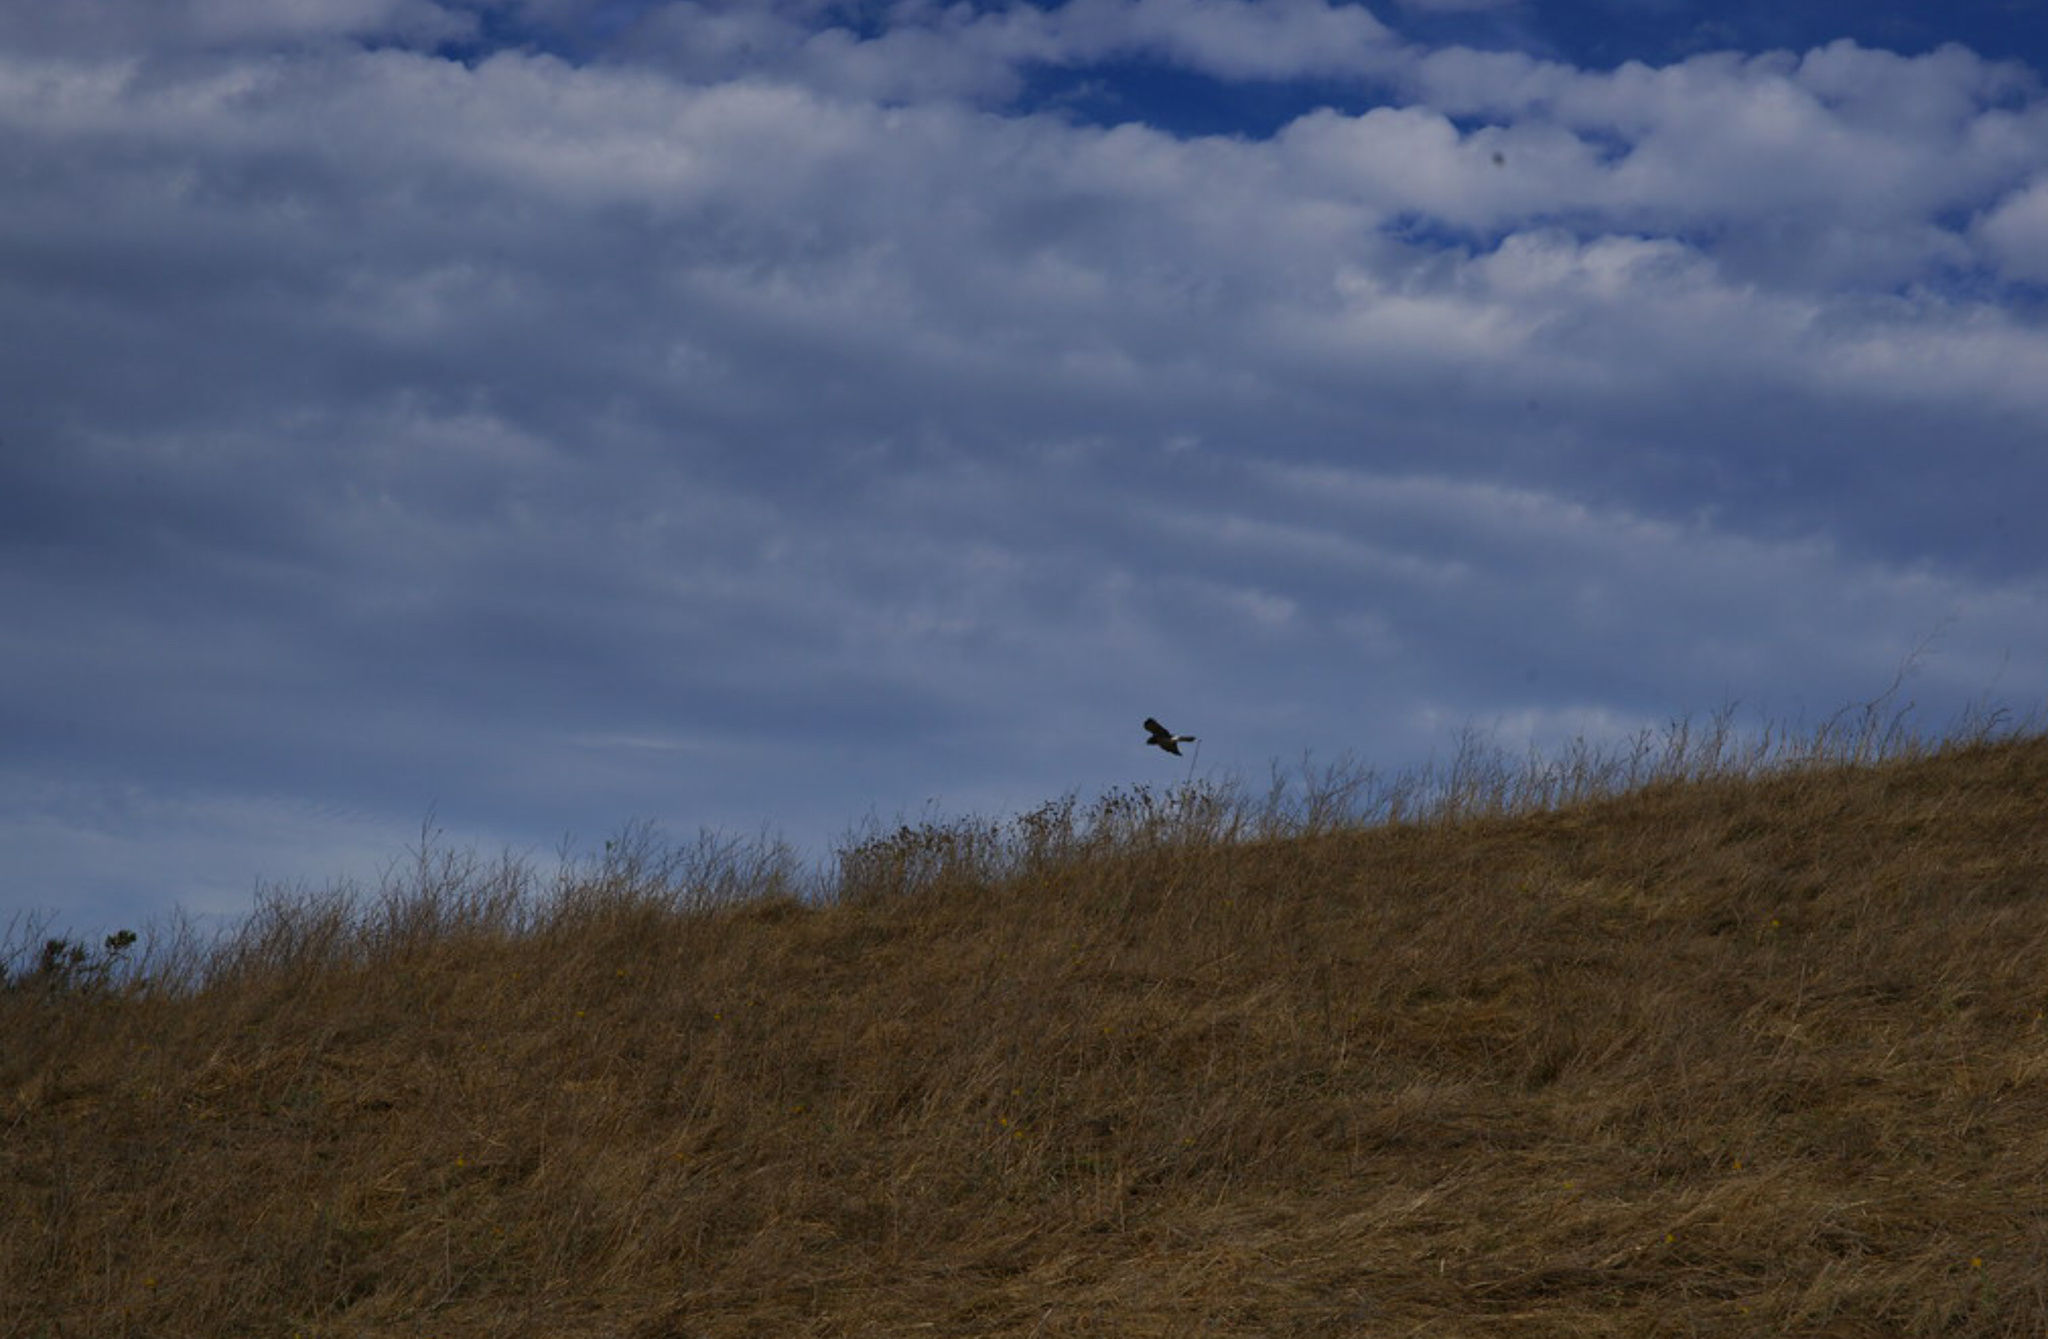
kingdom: Animalia
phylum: Chordata
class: Aves
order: Accipitriformes
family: Accipitridae
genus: Circus
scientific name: Circus cyaneus
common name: Hen harrier
